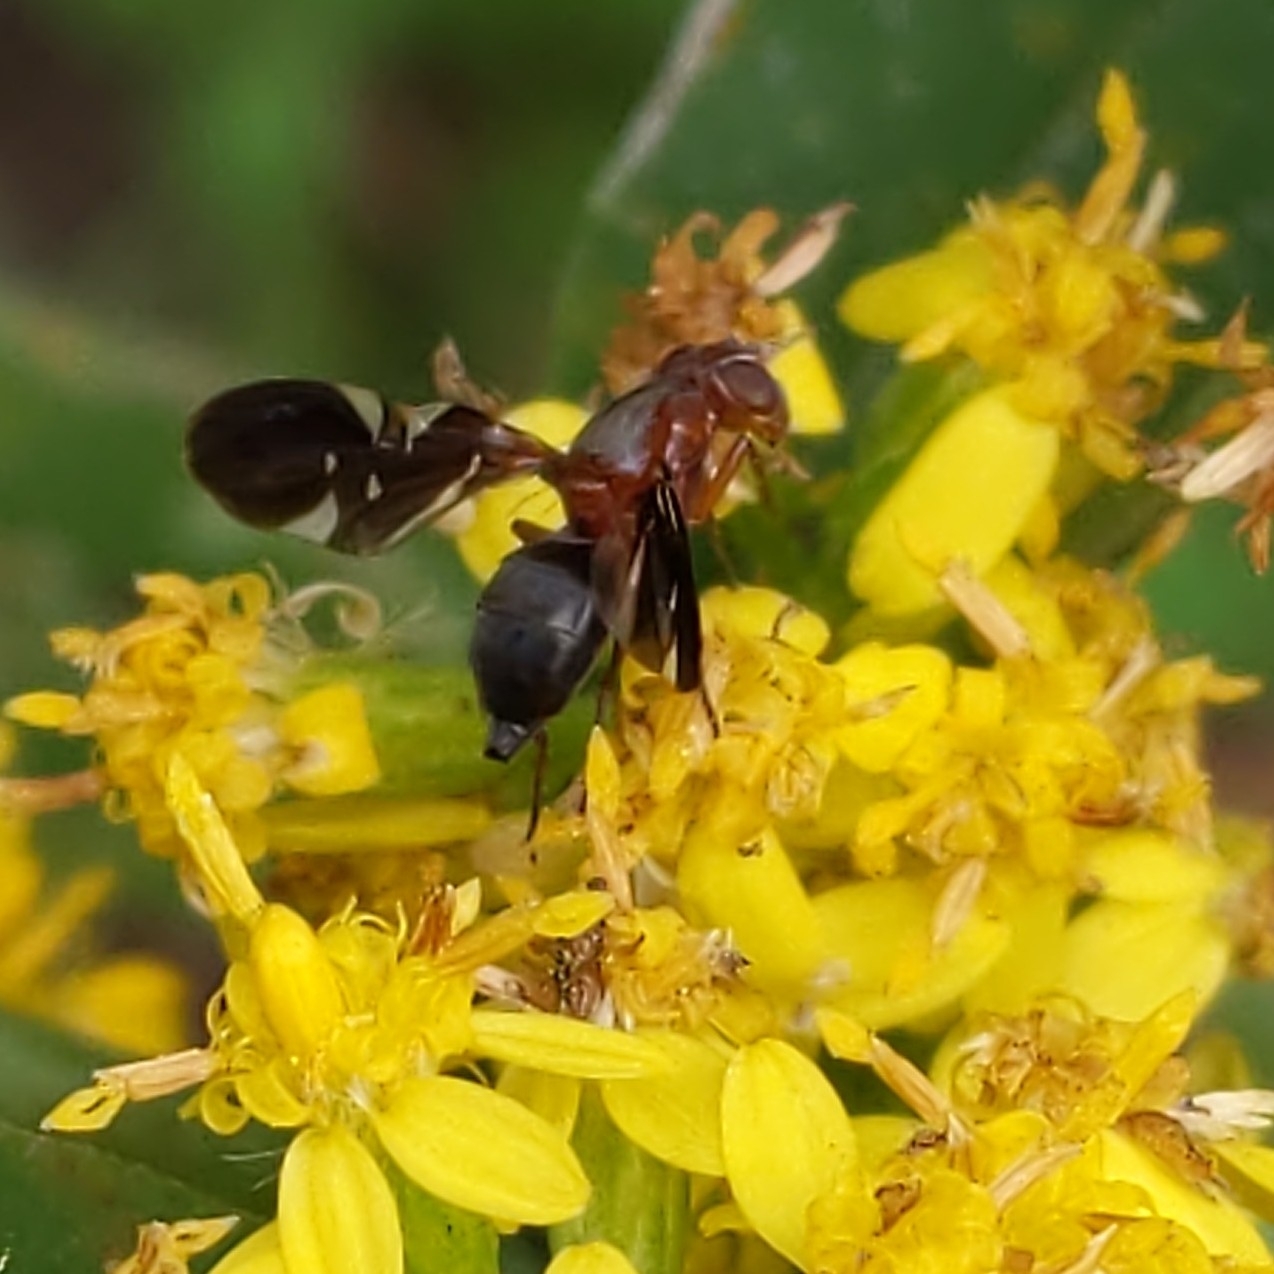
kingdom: Animalia
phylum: Arthropoda
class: Insecta
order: Diptera
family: Ulidiidae
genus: Delphinia
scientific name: Delphinia picta
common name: Common picture-winged fly
